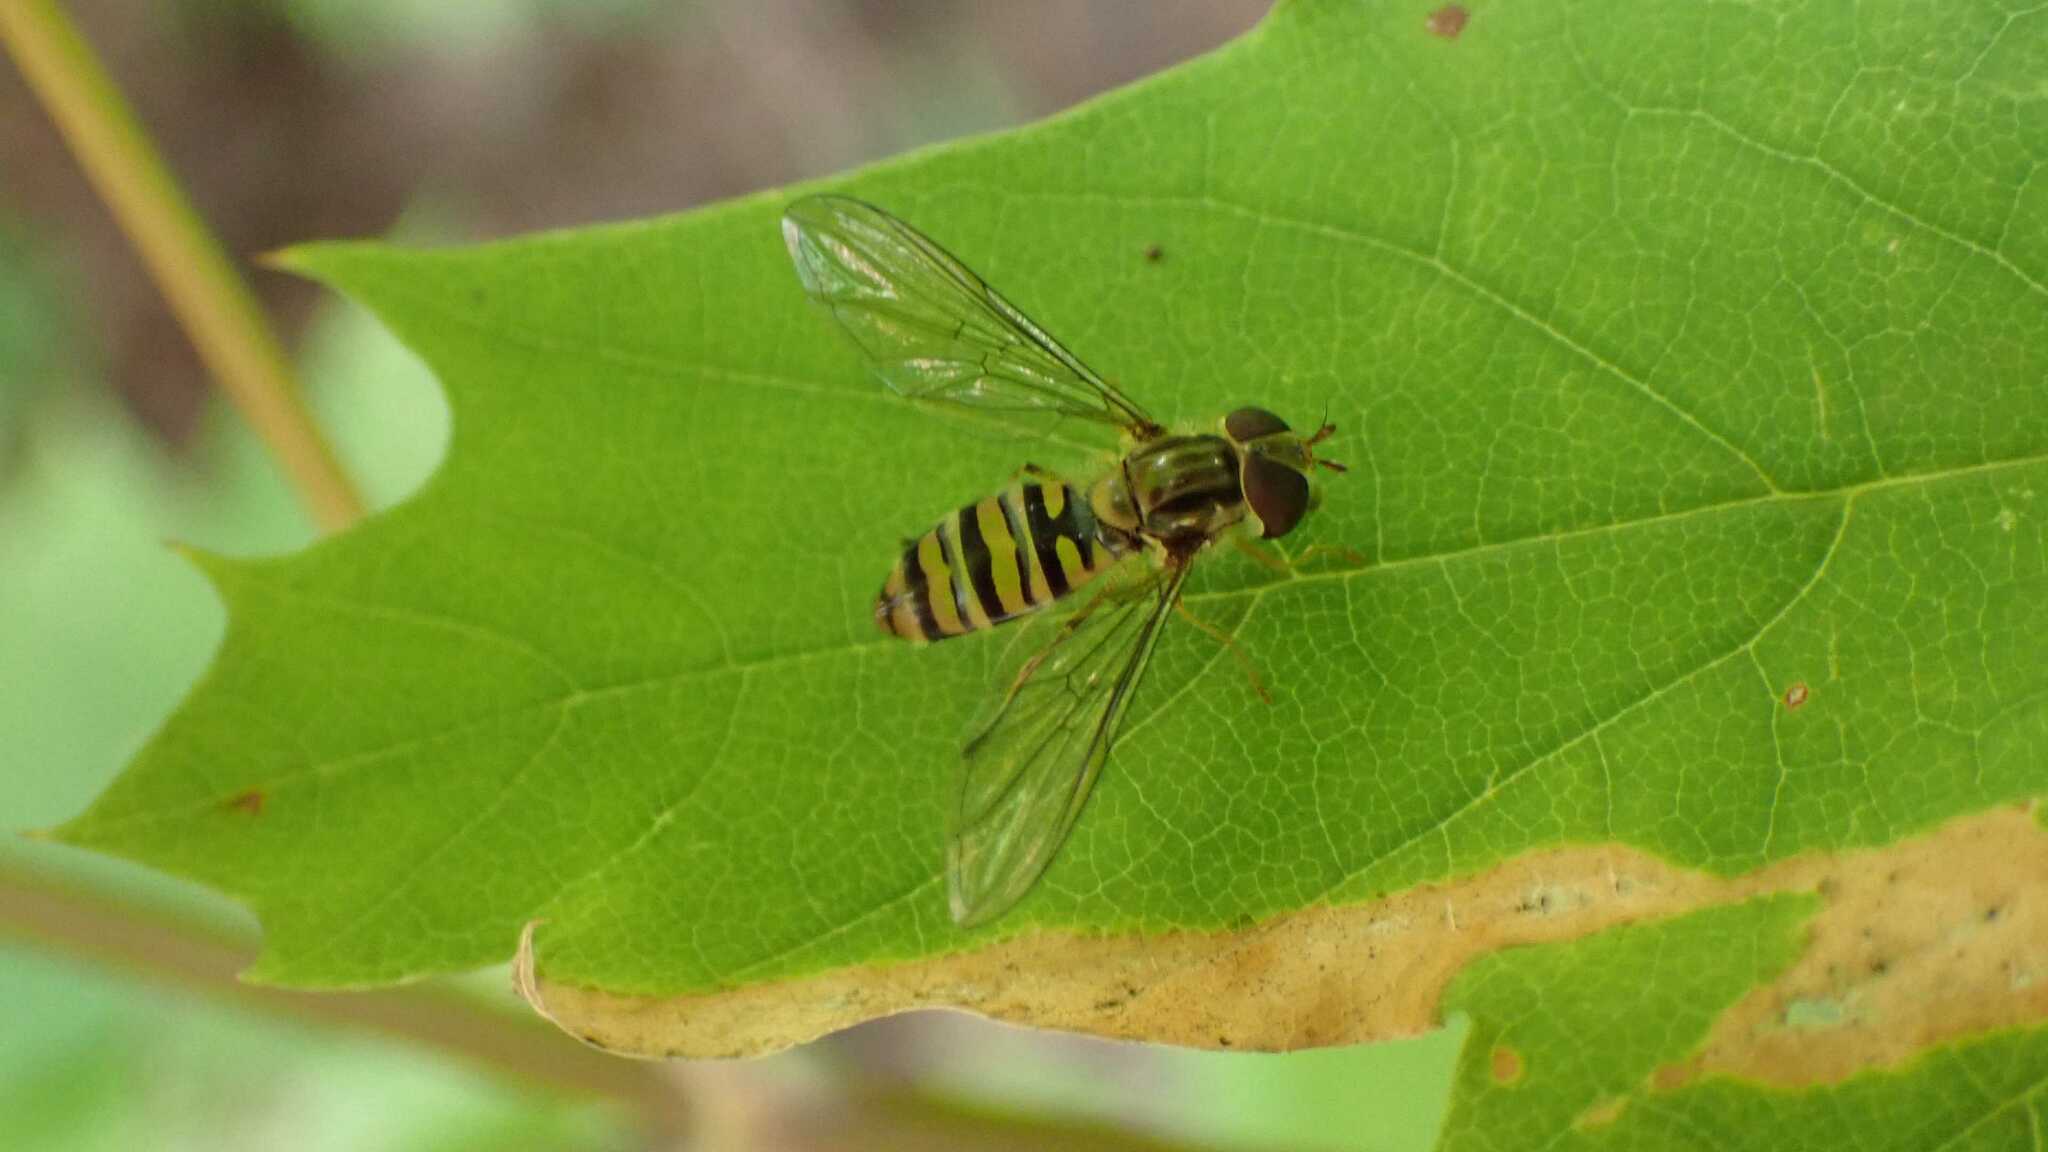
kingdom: Animalia
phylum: Arthropoda
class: Insecta
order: Diptera
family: Syrphidae
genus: Episyrphus
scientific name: Episyrphus balteatus
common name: Marmalade hoverfly
